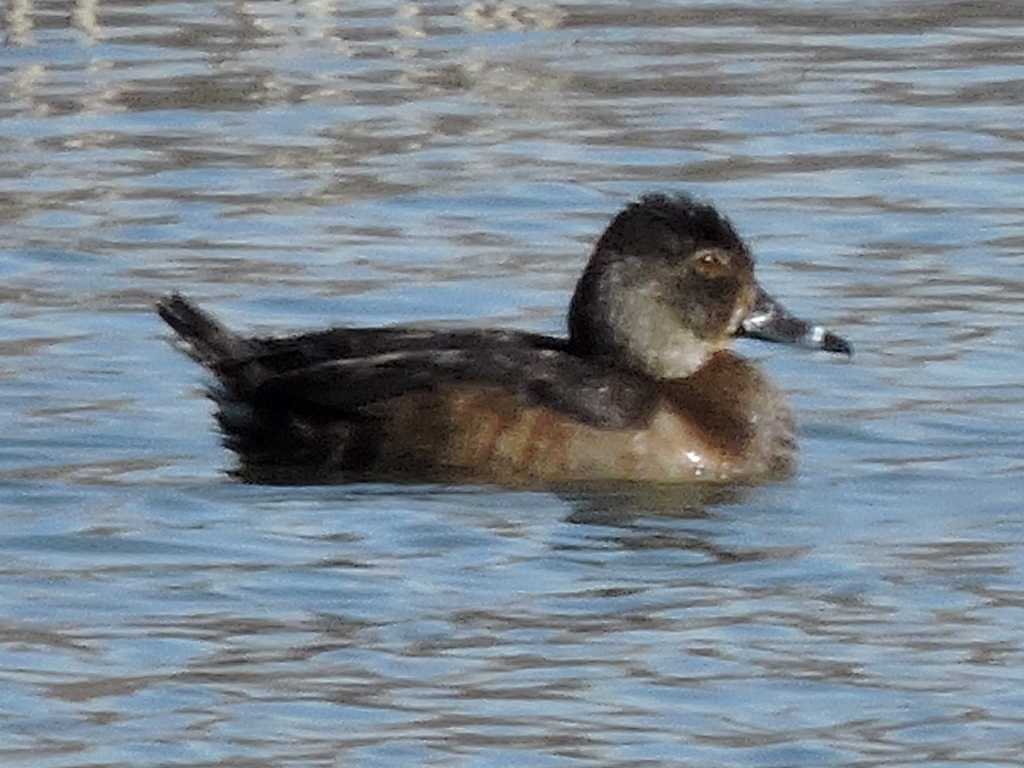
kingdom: Animalia
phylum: Chordata
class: Aves
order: Anseriformes
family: Anatidae
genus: Aythya
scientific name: Aythya collaris
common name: Ring-necked duck
